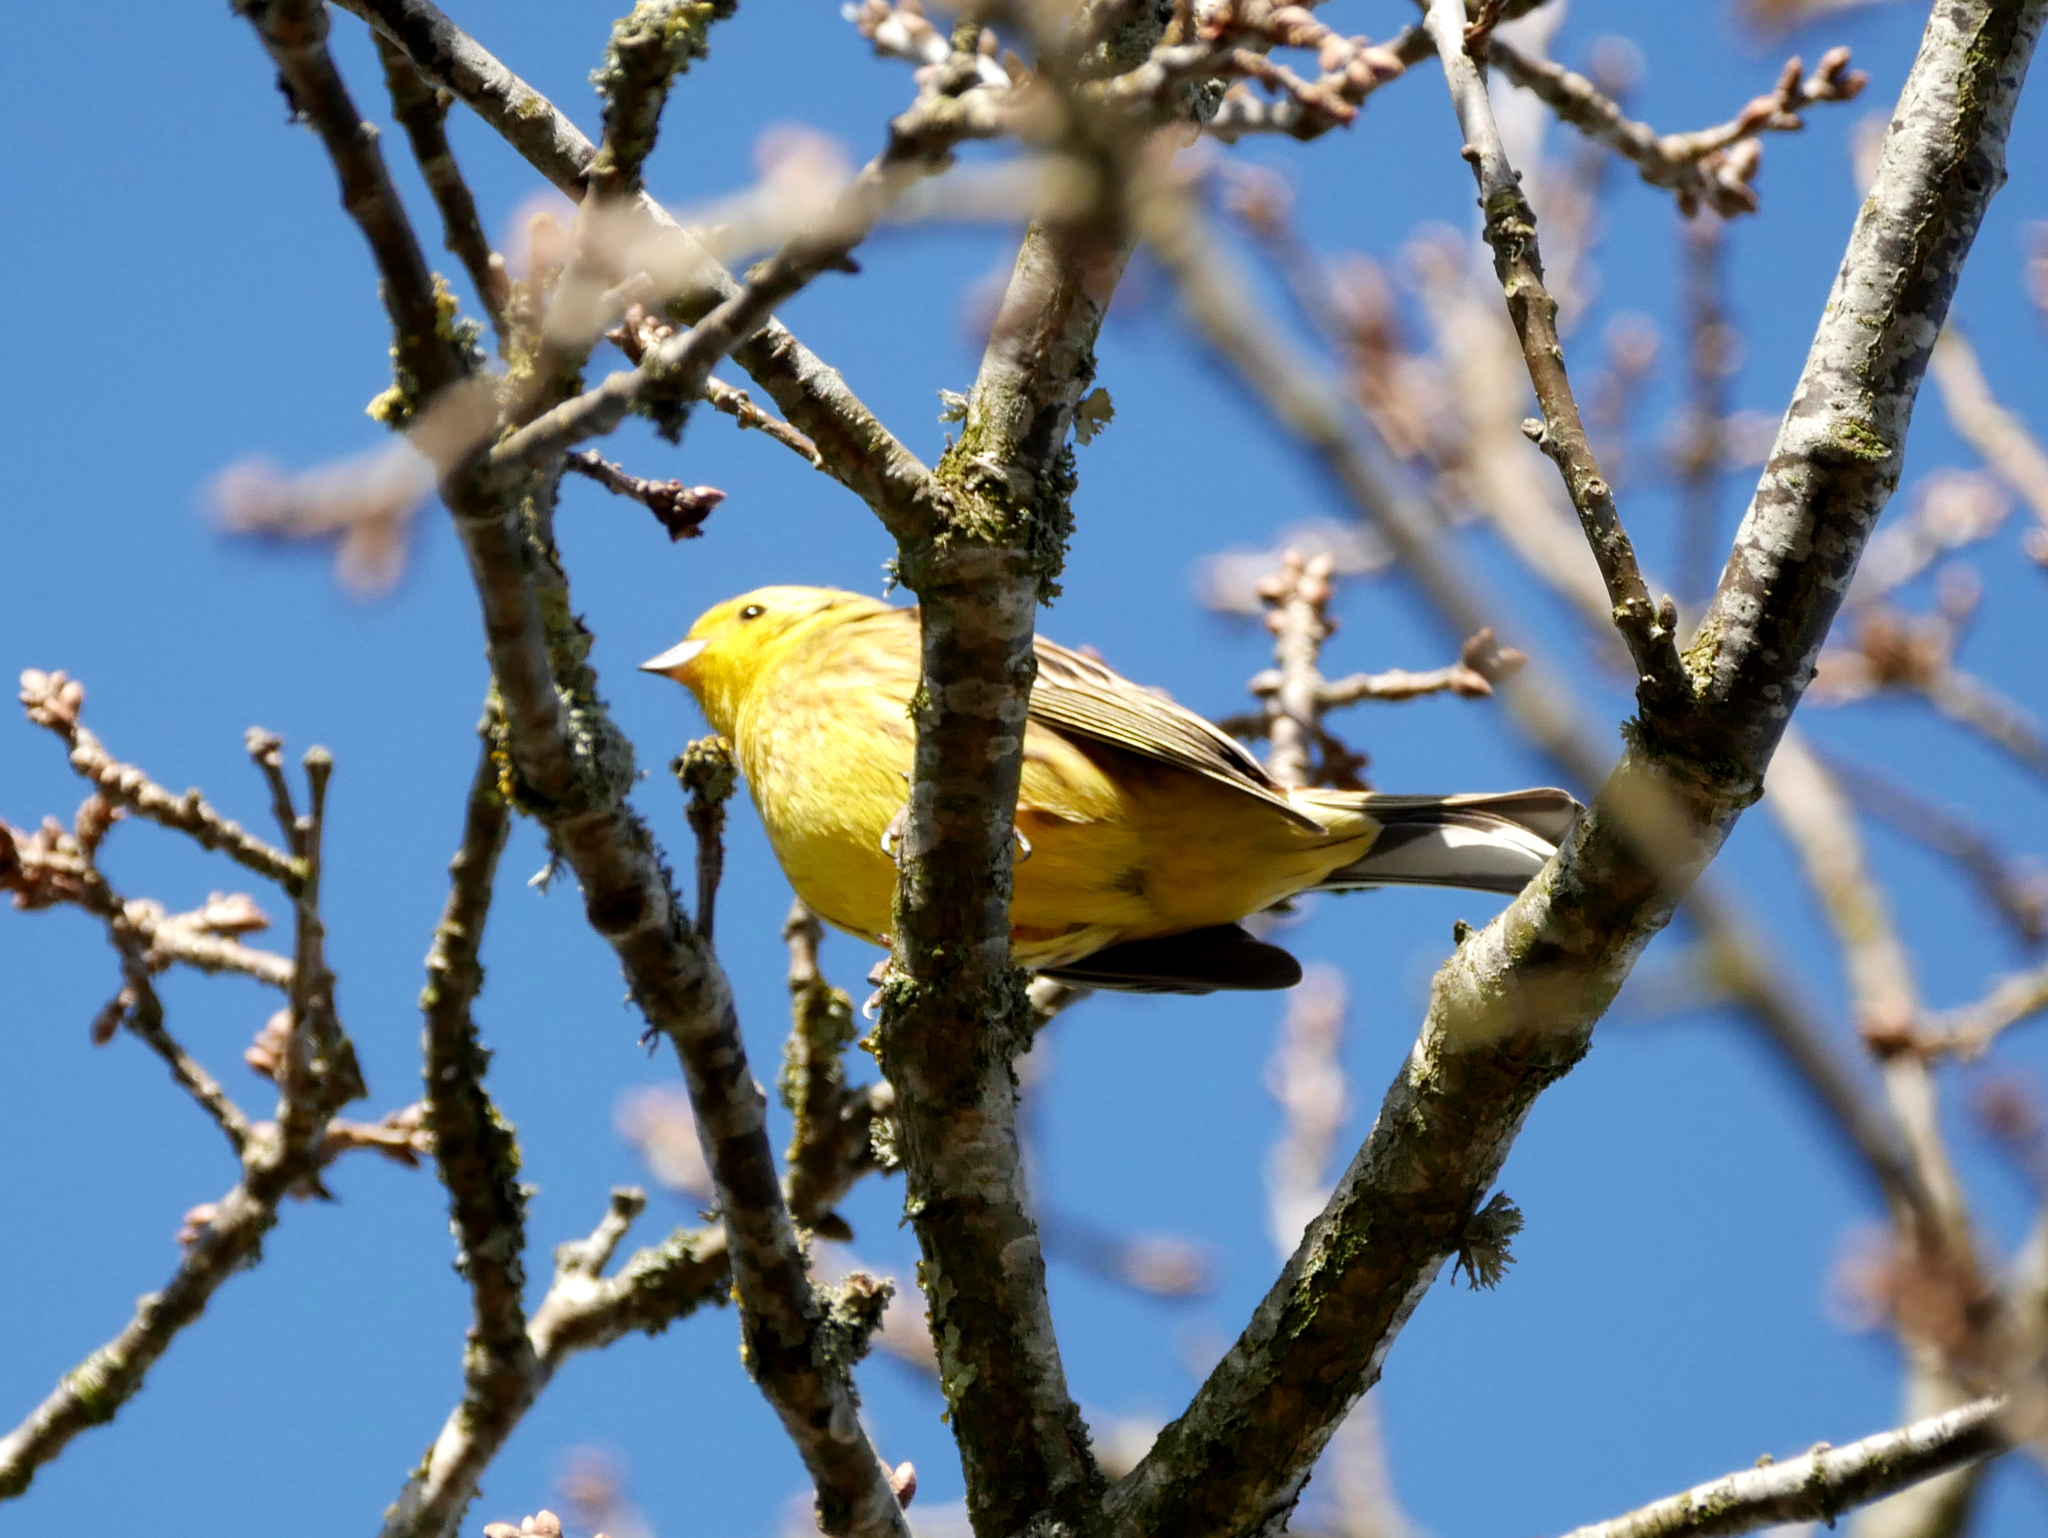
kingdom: Animalia
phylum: Chordata
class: Aves
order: Passeriformes
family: Emberizidae
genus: Emberiza
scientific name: Emberiza citrinella
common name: Yellowhammer
